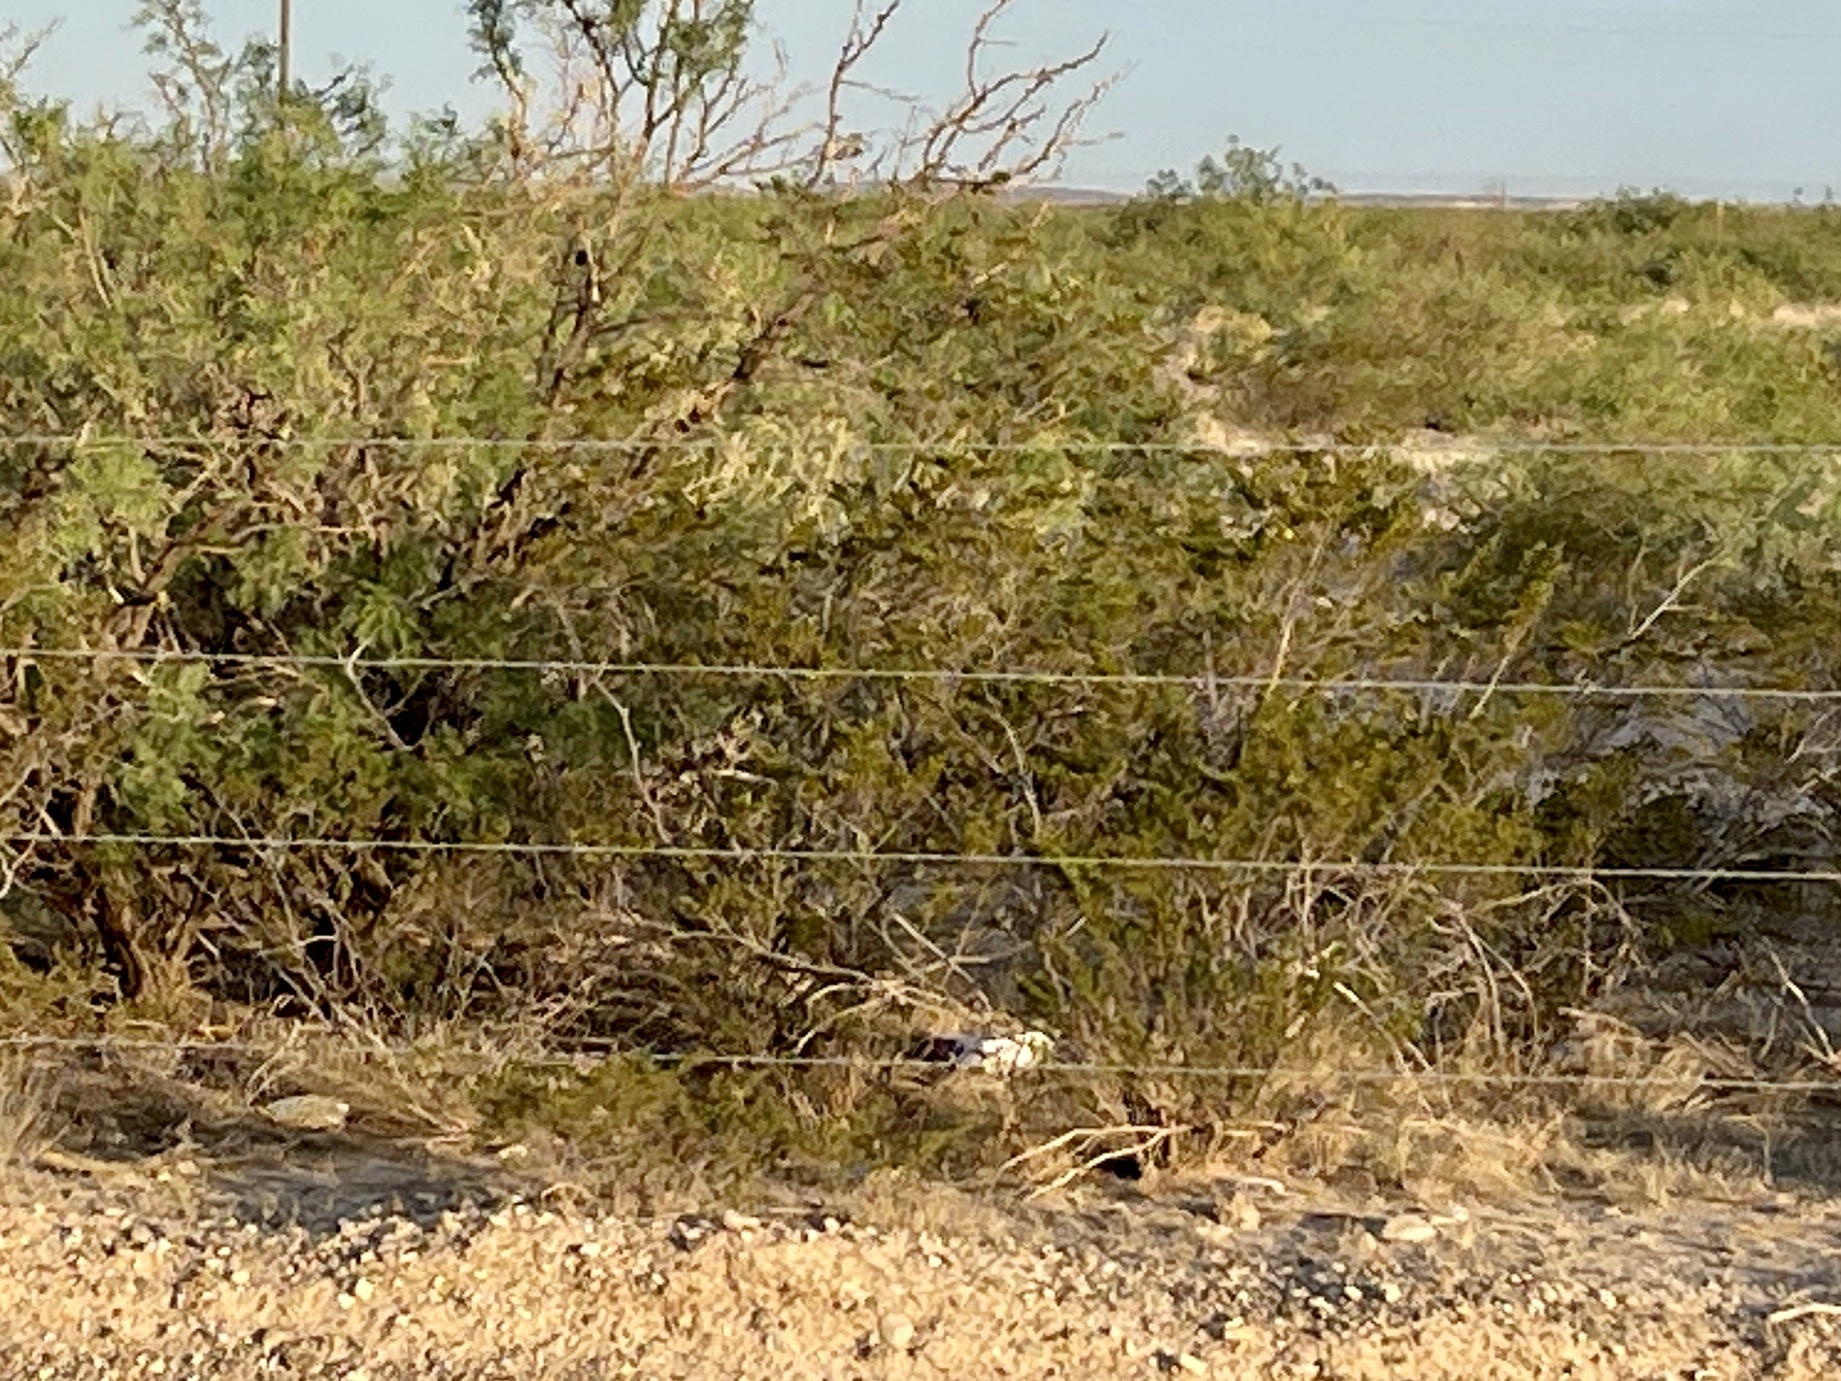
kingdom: Plantae
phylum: Tracheophyta
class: Magnoliopsida
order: Zygophyllales
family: Zygophyllaceae
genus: Larrea
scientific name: Larrea tridentata
